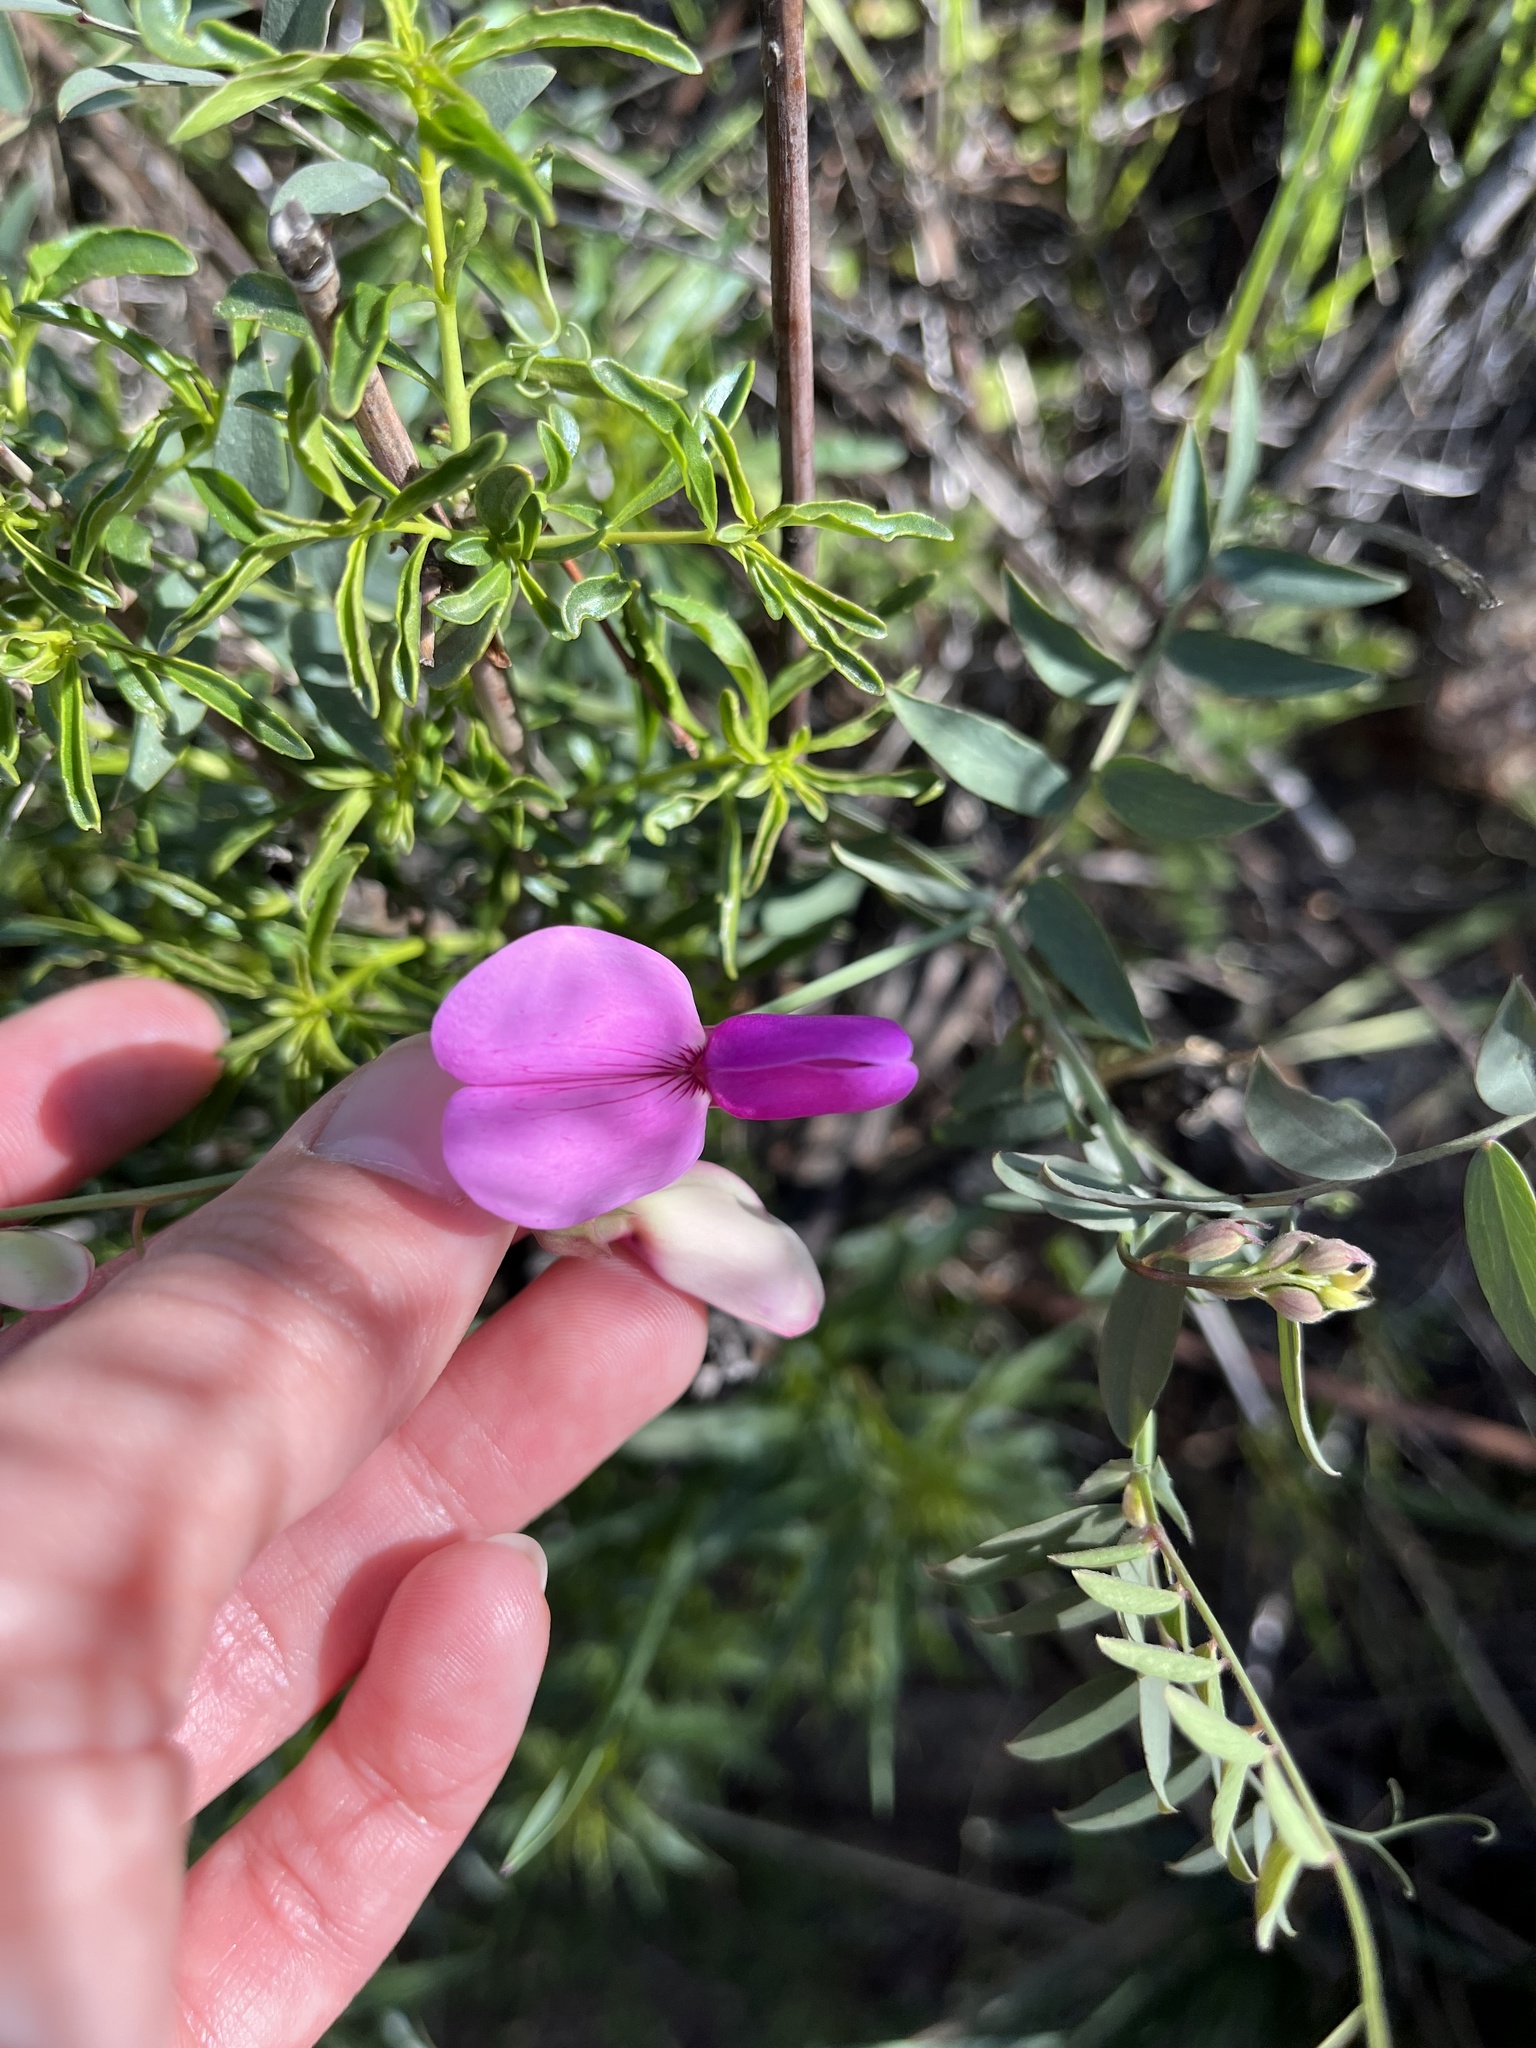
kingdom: Plantae
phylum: Tracheophyta
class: Magnoliopsida
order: Fabales
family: Fabaceae
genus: Lathyrus
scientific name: Lathyrus vestitus
